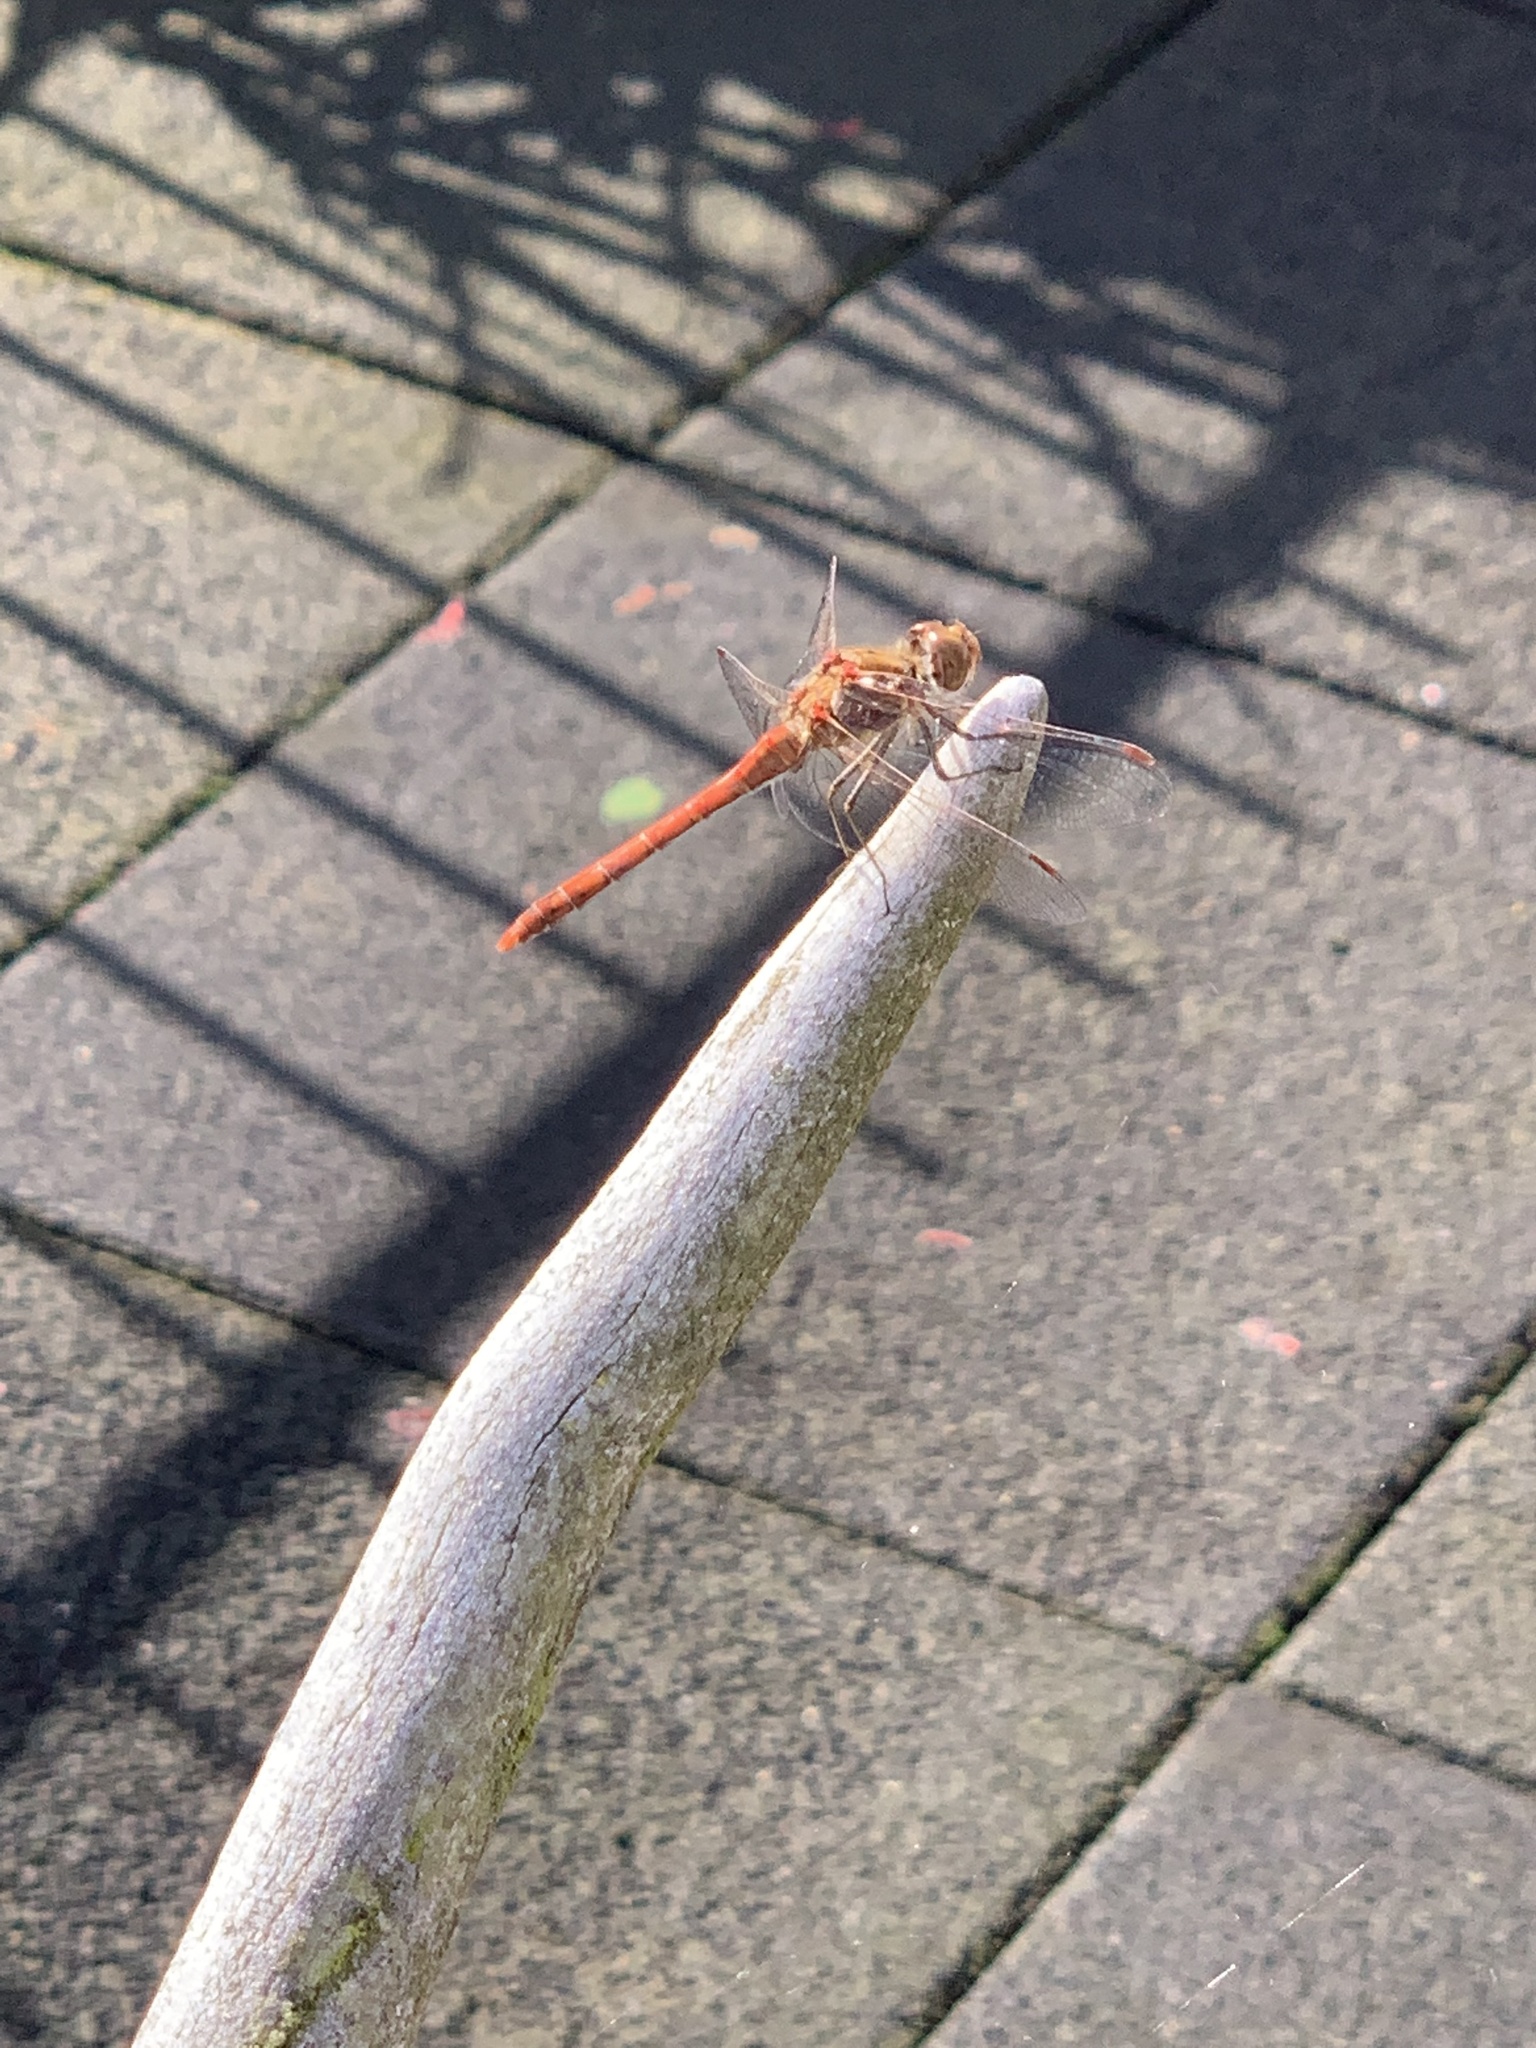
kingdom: Animalia
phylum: Arthropoda
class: Insecta
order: Odonata
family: Libellulidae
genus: Sympetrum
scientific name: Sympetrum striolatum
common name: Common darter
